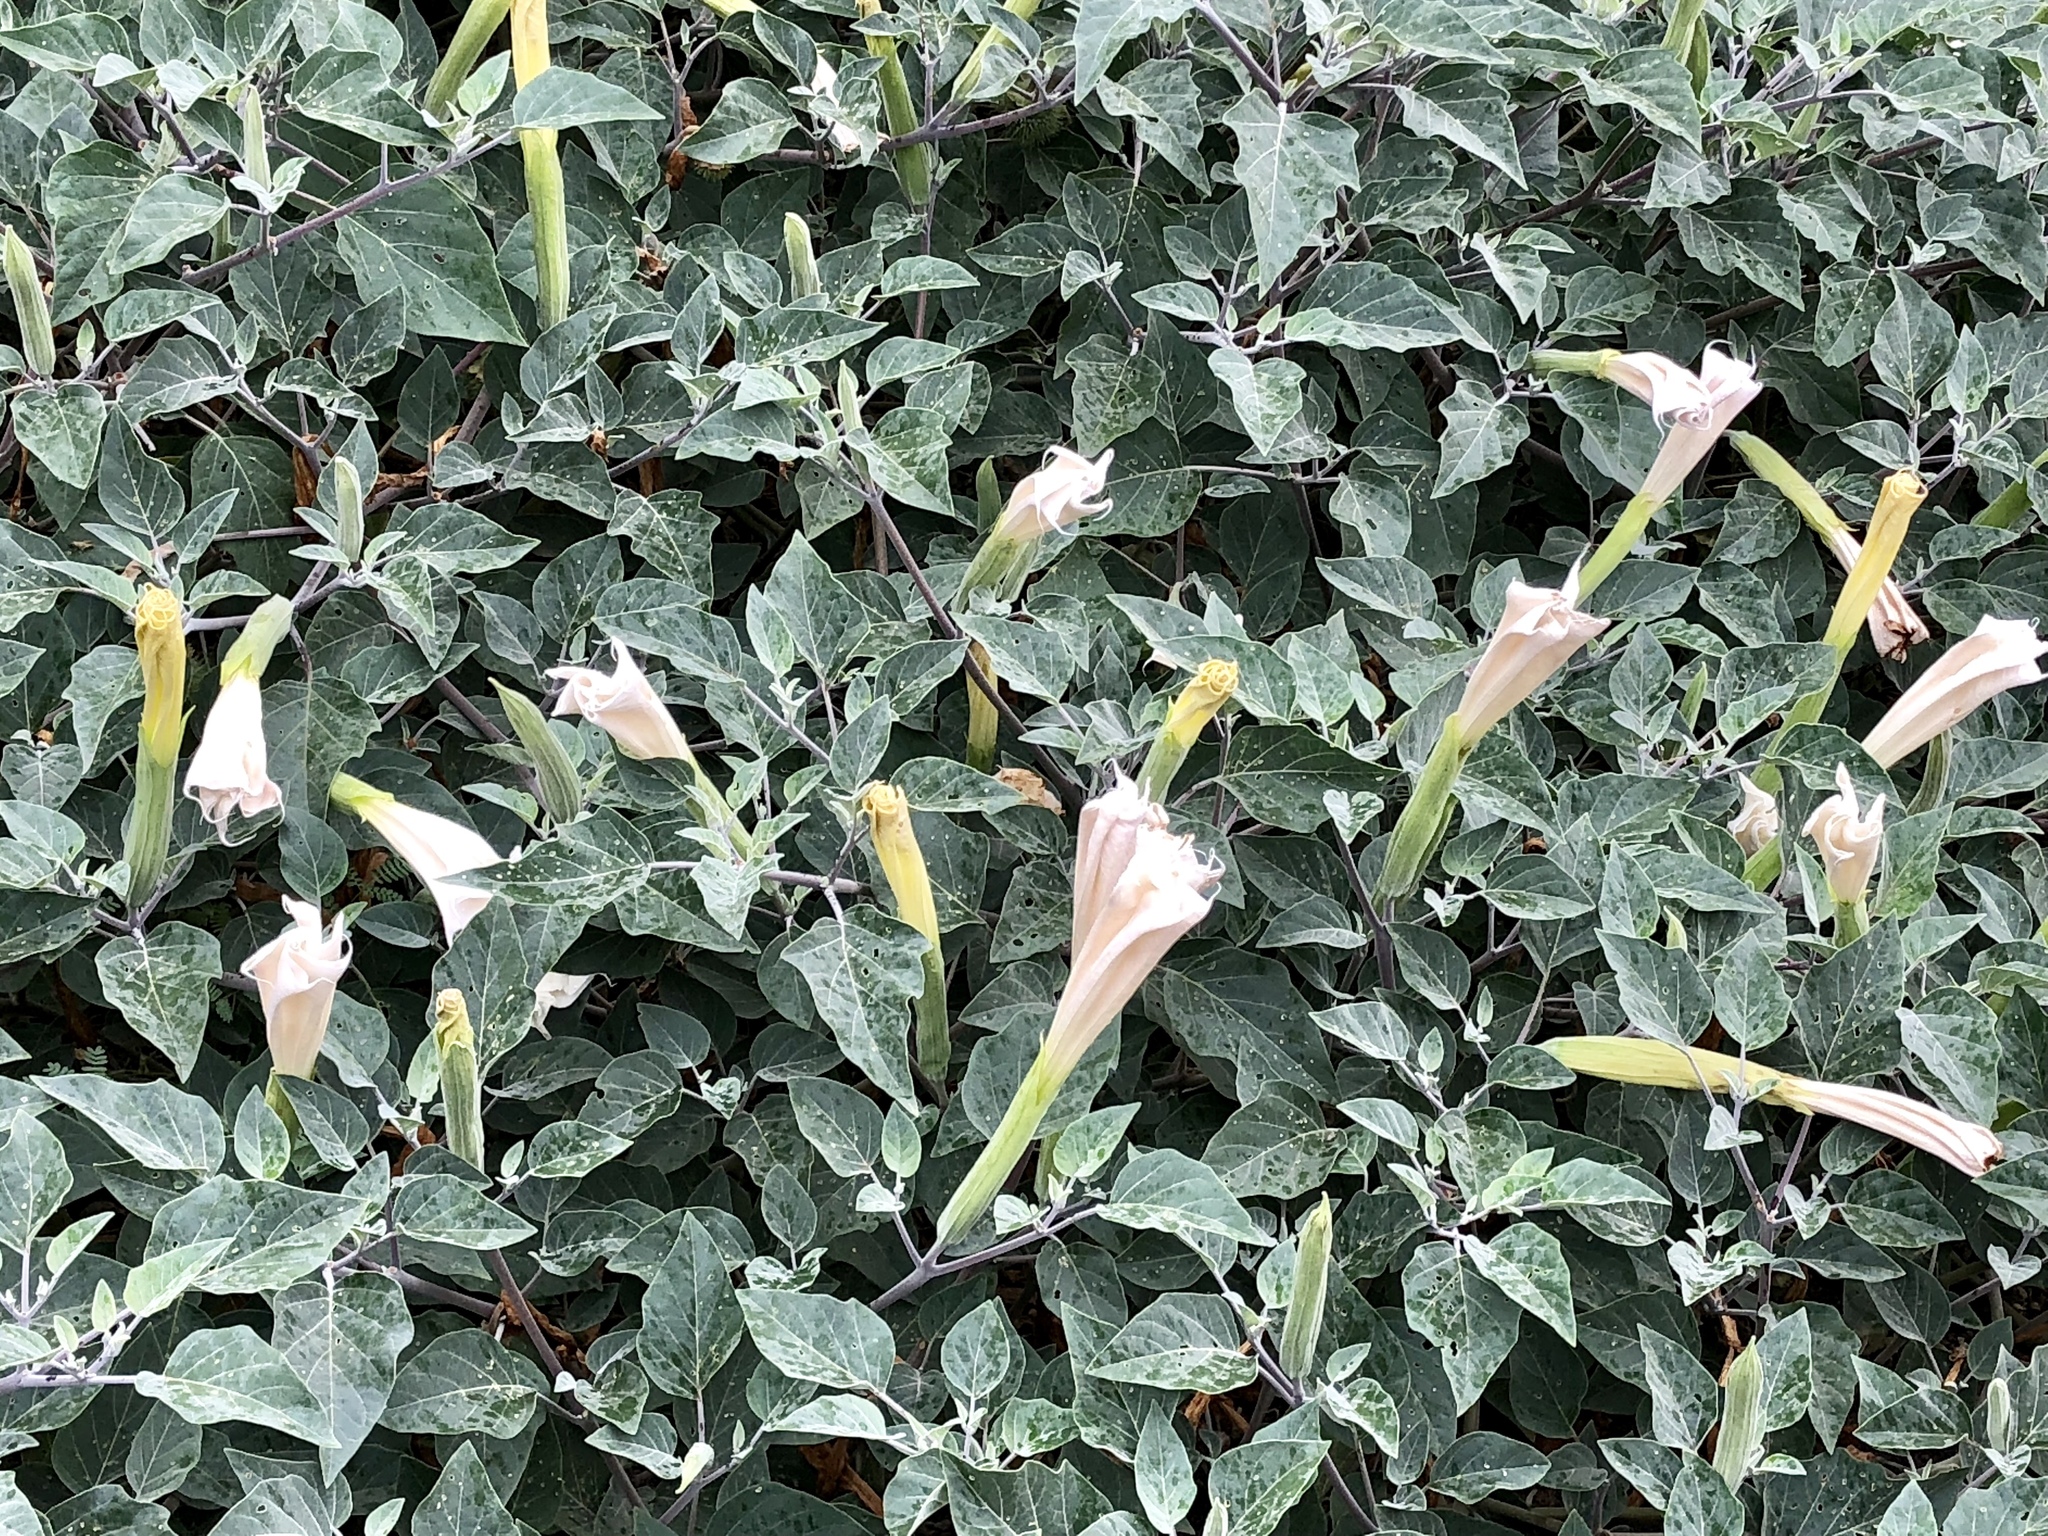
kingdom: Plantae
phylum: Tracheophyta
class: Magnoliopsida
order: Solanales
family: Solanaceae
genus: Datura
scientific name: Datura wrightii
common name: Sacred thorn-apple
